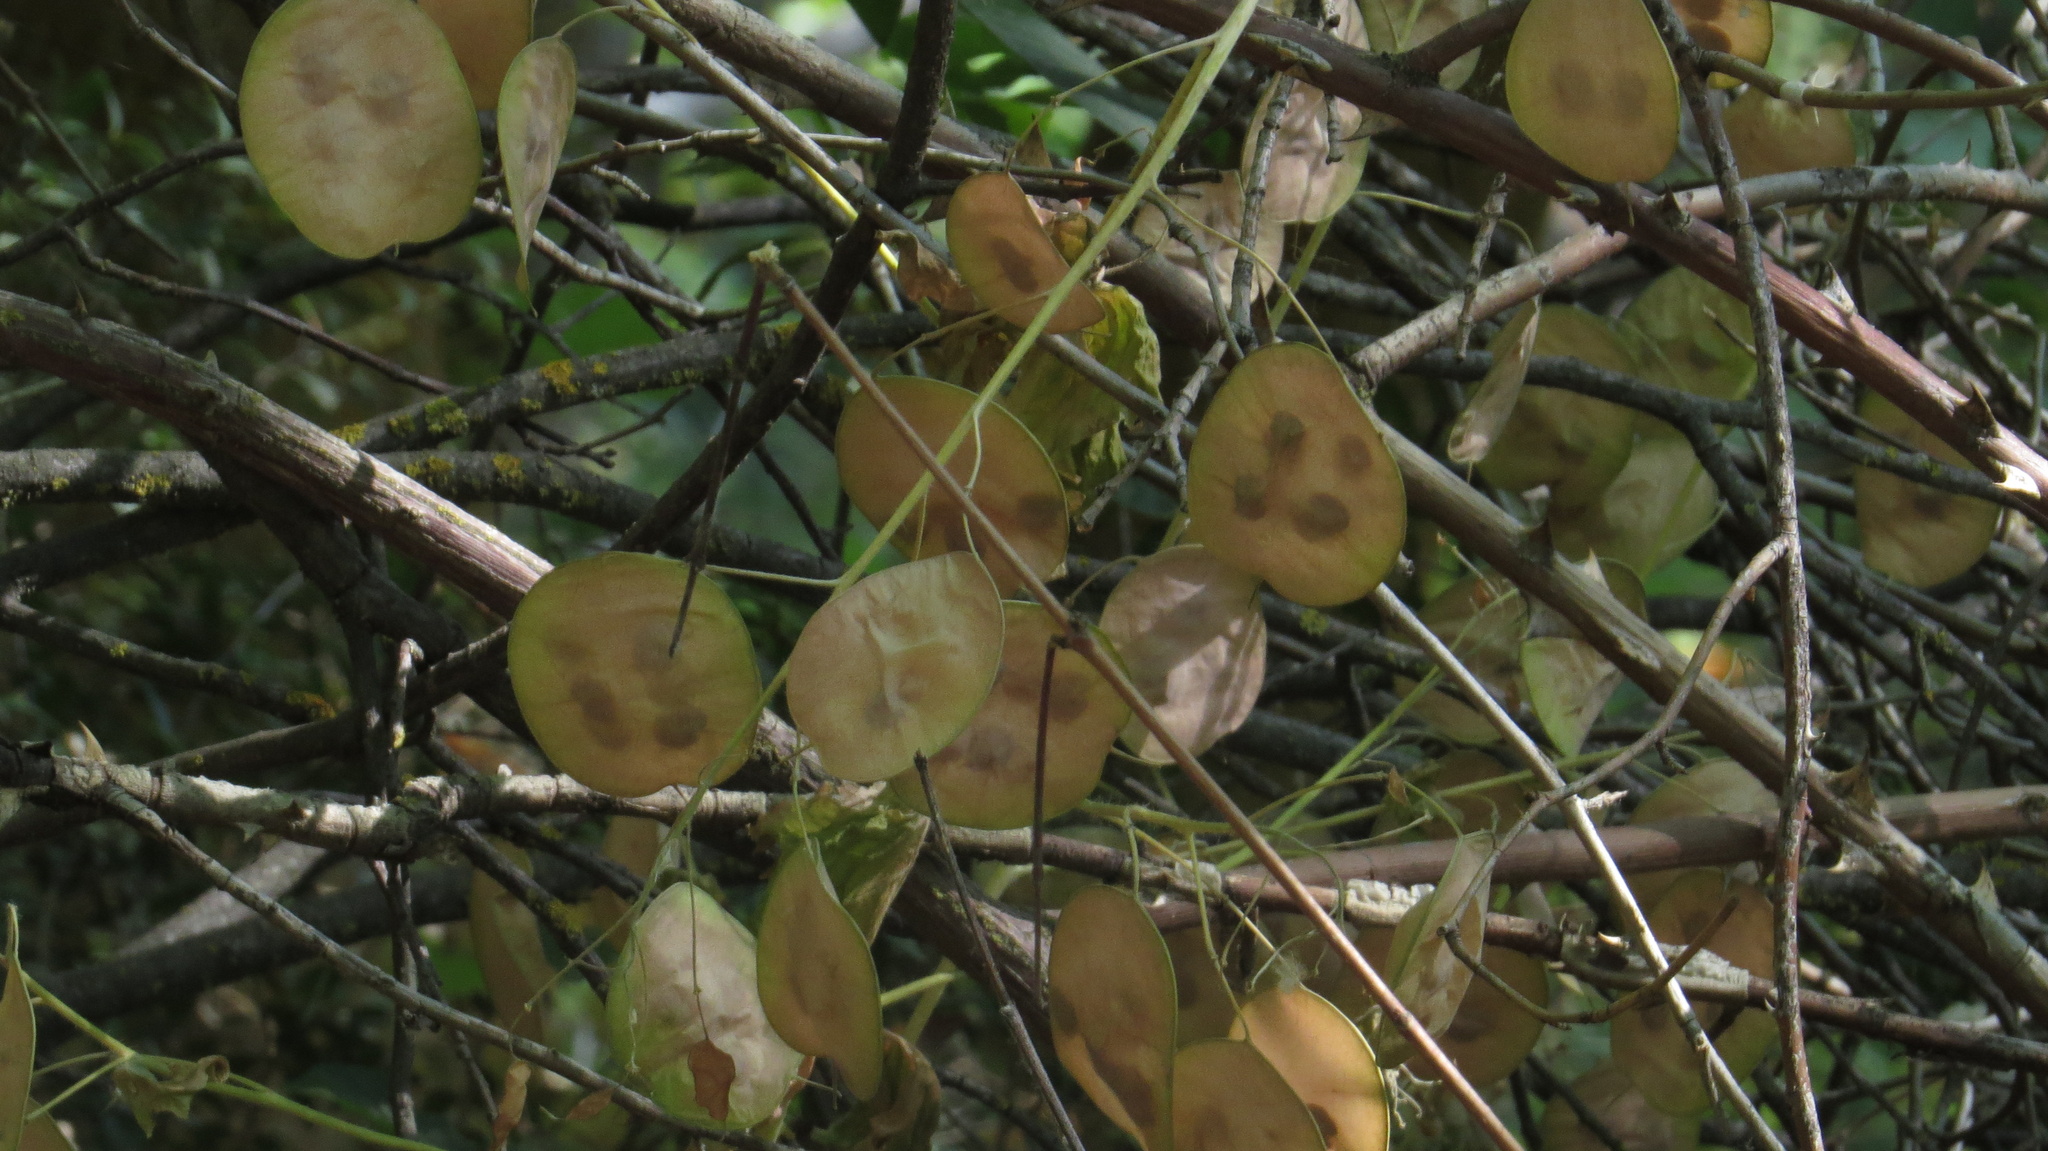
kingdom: Plantae
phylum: Tracheophyta
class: Magnoliopsida
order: Brassicales
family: Brassicaceae
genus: Lunaria
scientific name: Lunaria annua
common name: Honesty
